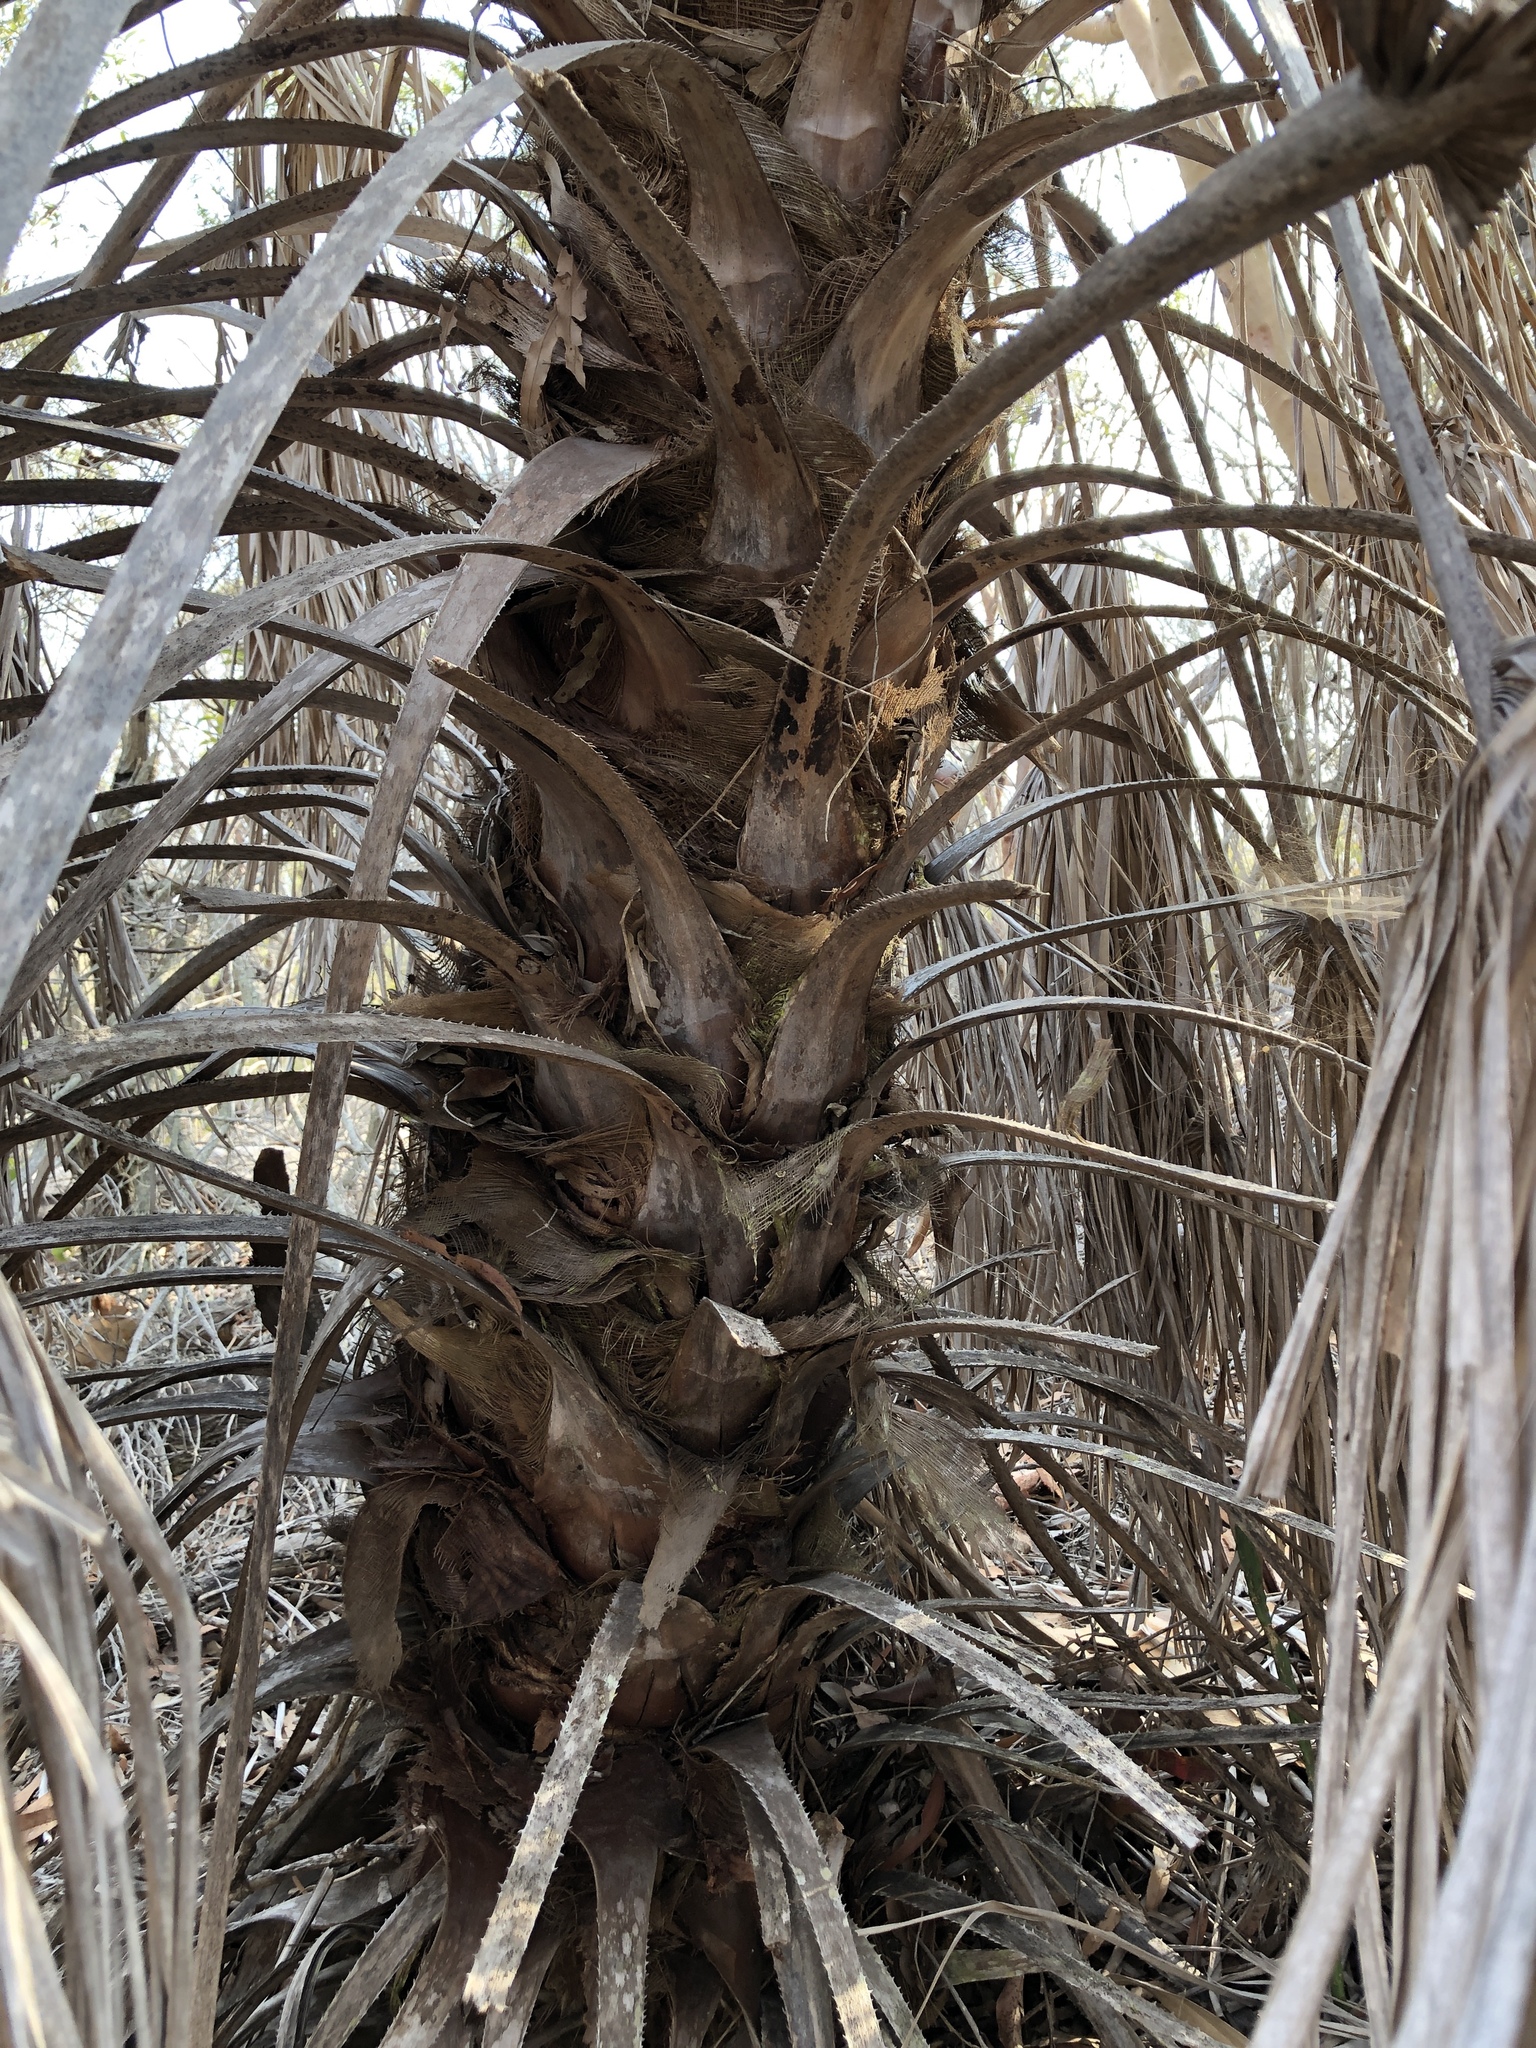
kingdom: Plantae
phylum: Tracheophyta
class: Liliopsida
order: Arecales
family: Arecaceae
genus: Livistona
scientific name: Livistona decora
